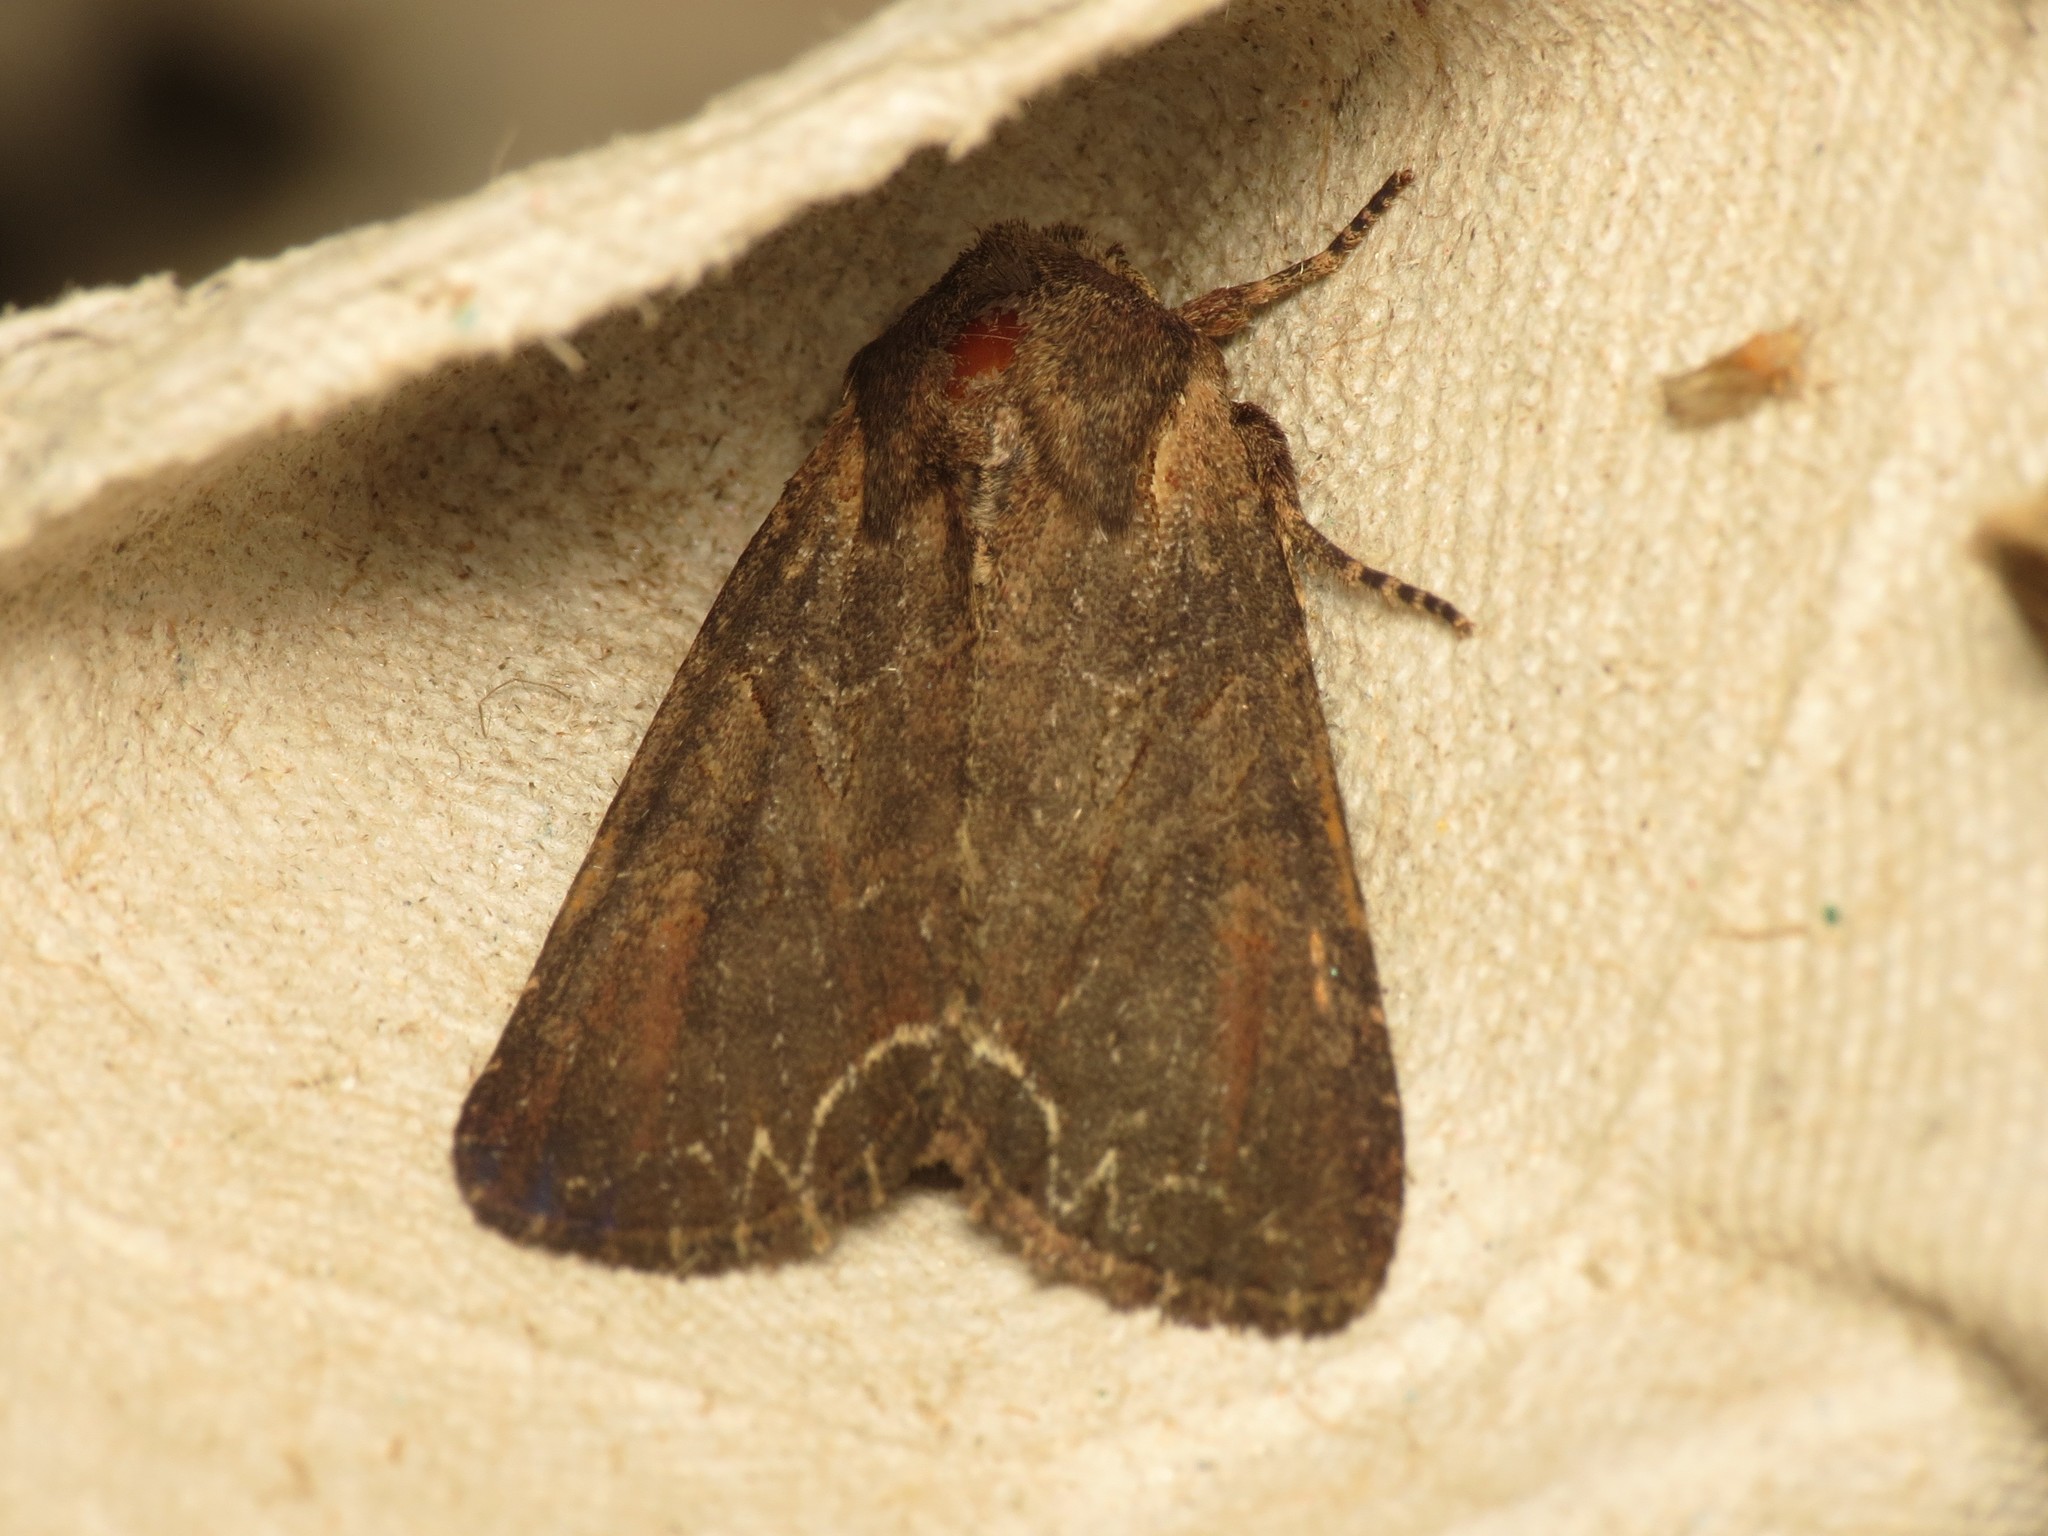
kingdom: Animalia
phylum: Arthropoda
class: Insecta
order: Lepidoptera
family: Noctuidae
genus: Lacanobia
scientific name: Lacanobia suasa
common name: Dog's tooth
